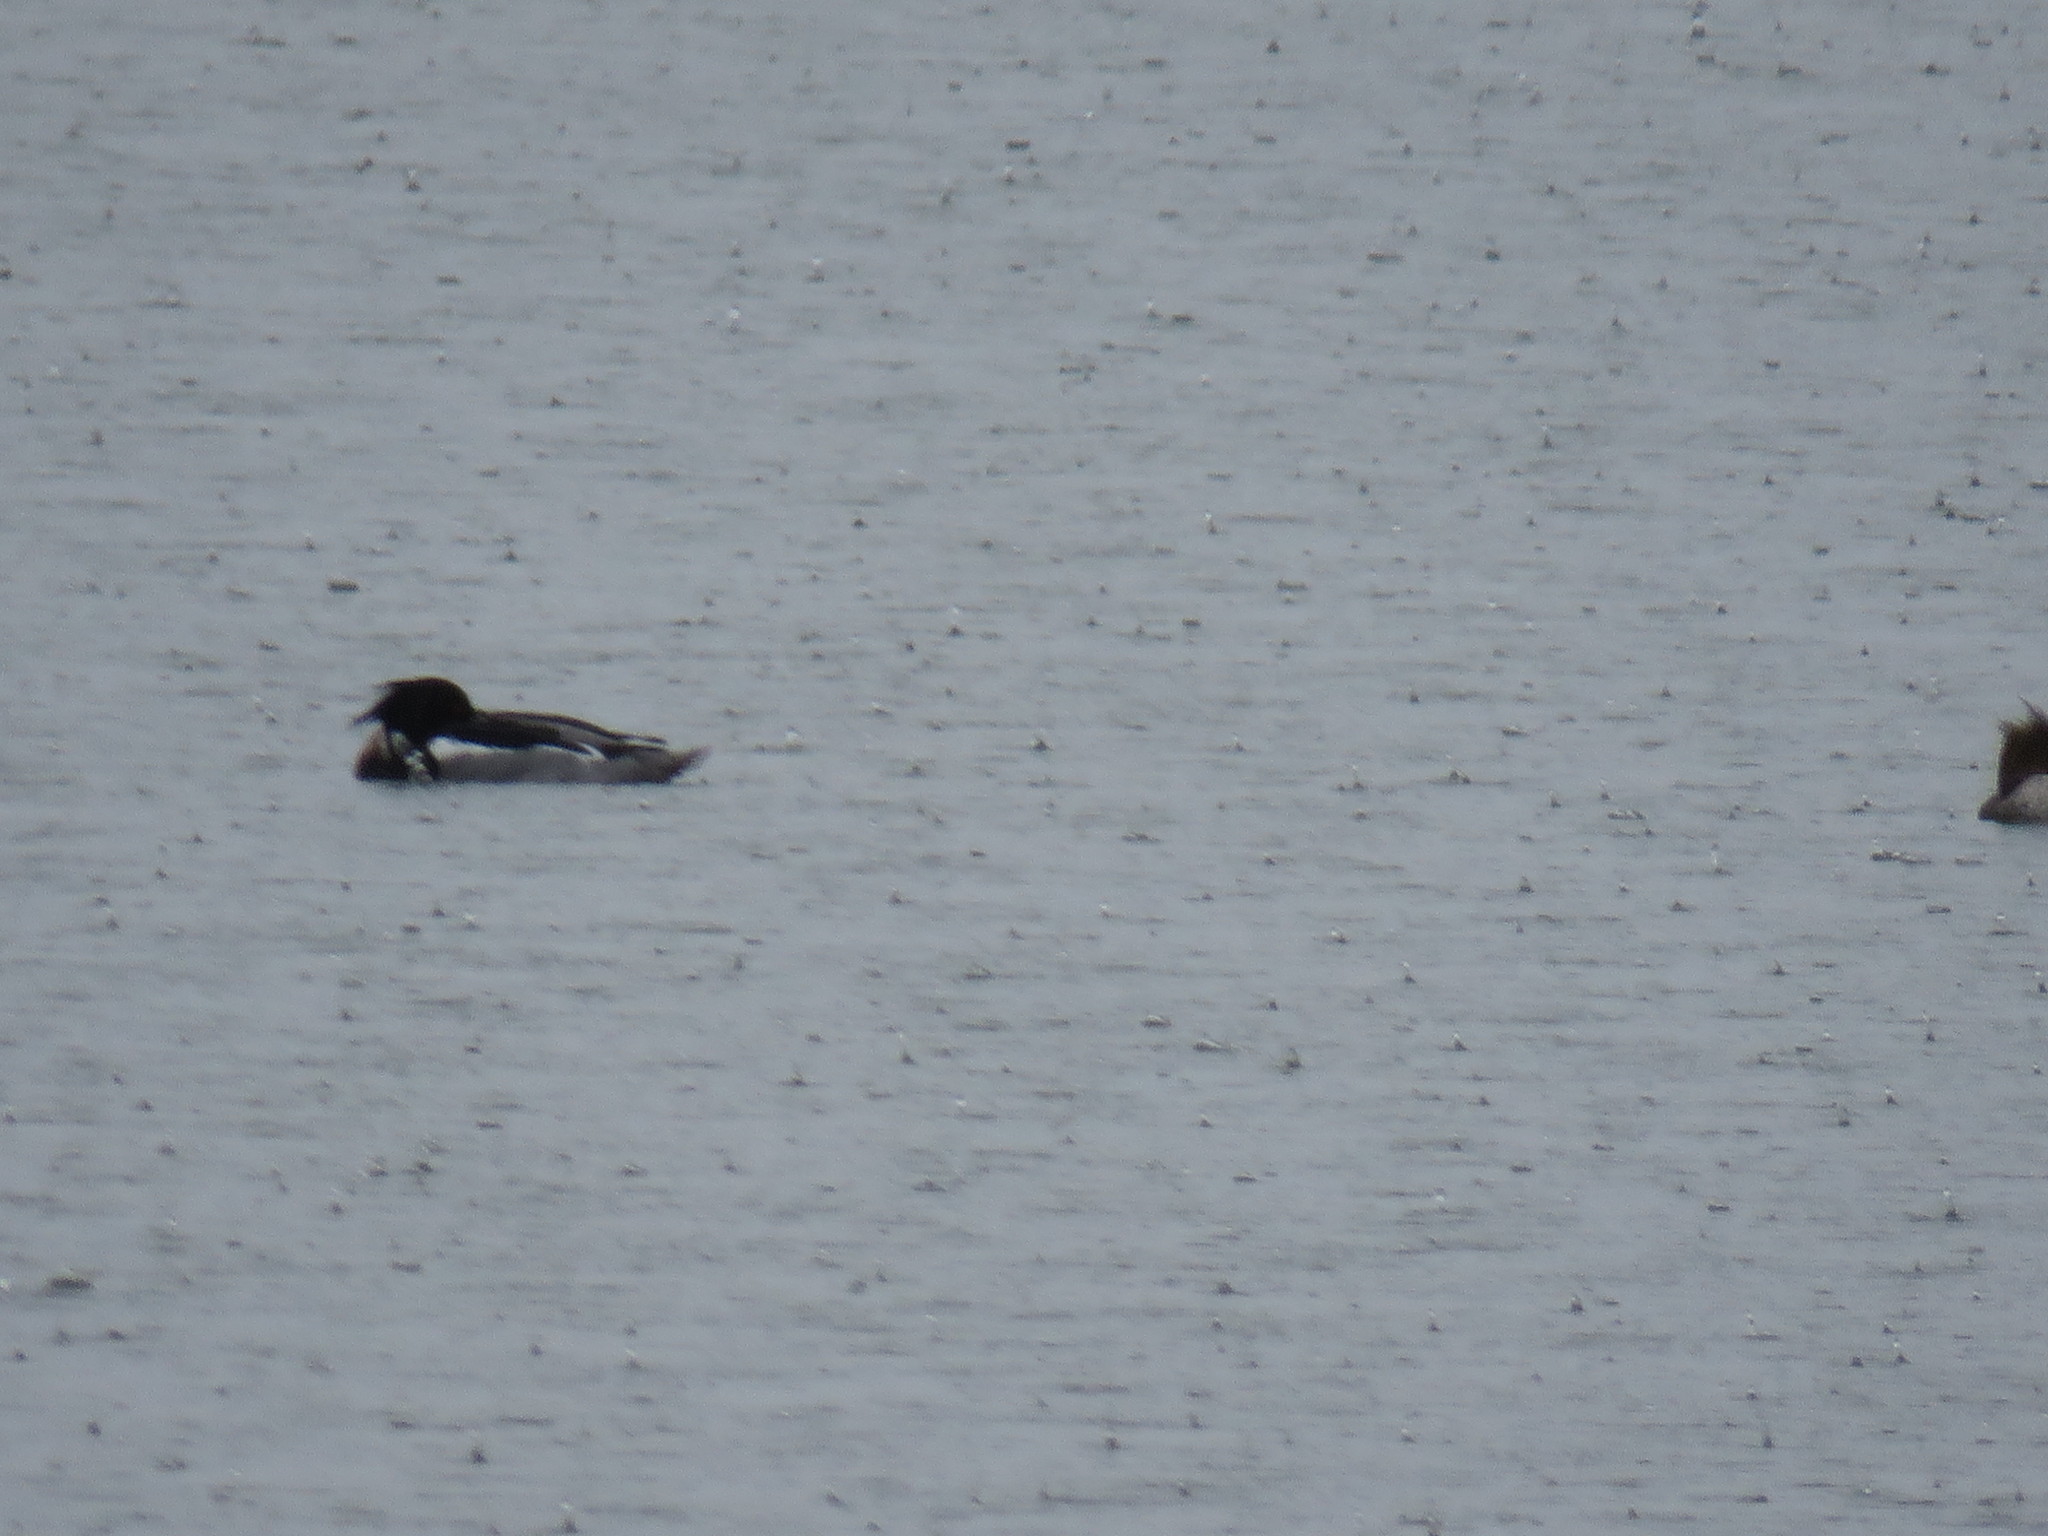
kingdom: Animalia
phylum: Chordata
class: Aves
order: Anseriformes
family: Anatidae
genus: Mergus
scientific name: Mergus serrator
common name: Red-breasted merganser
